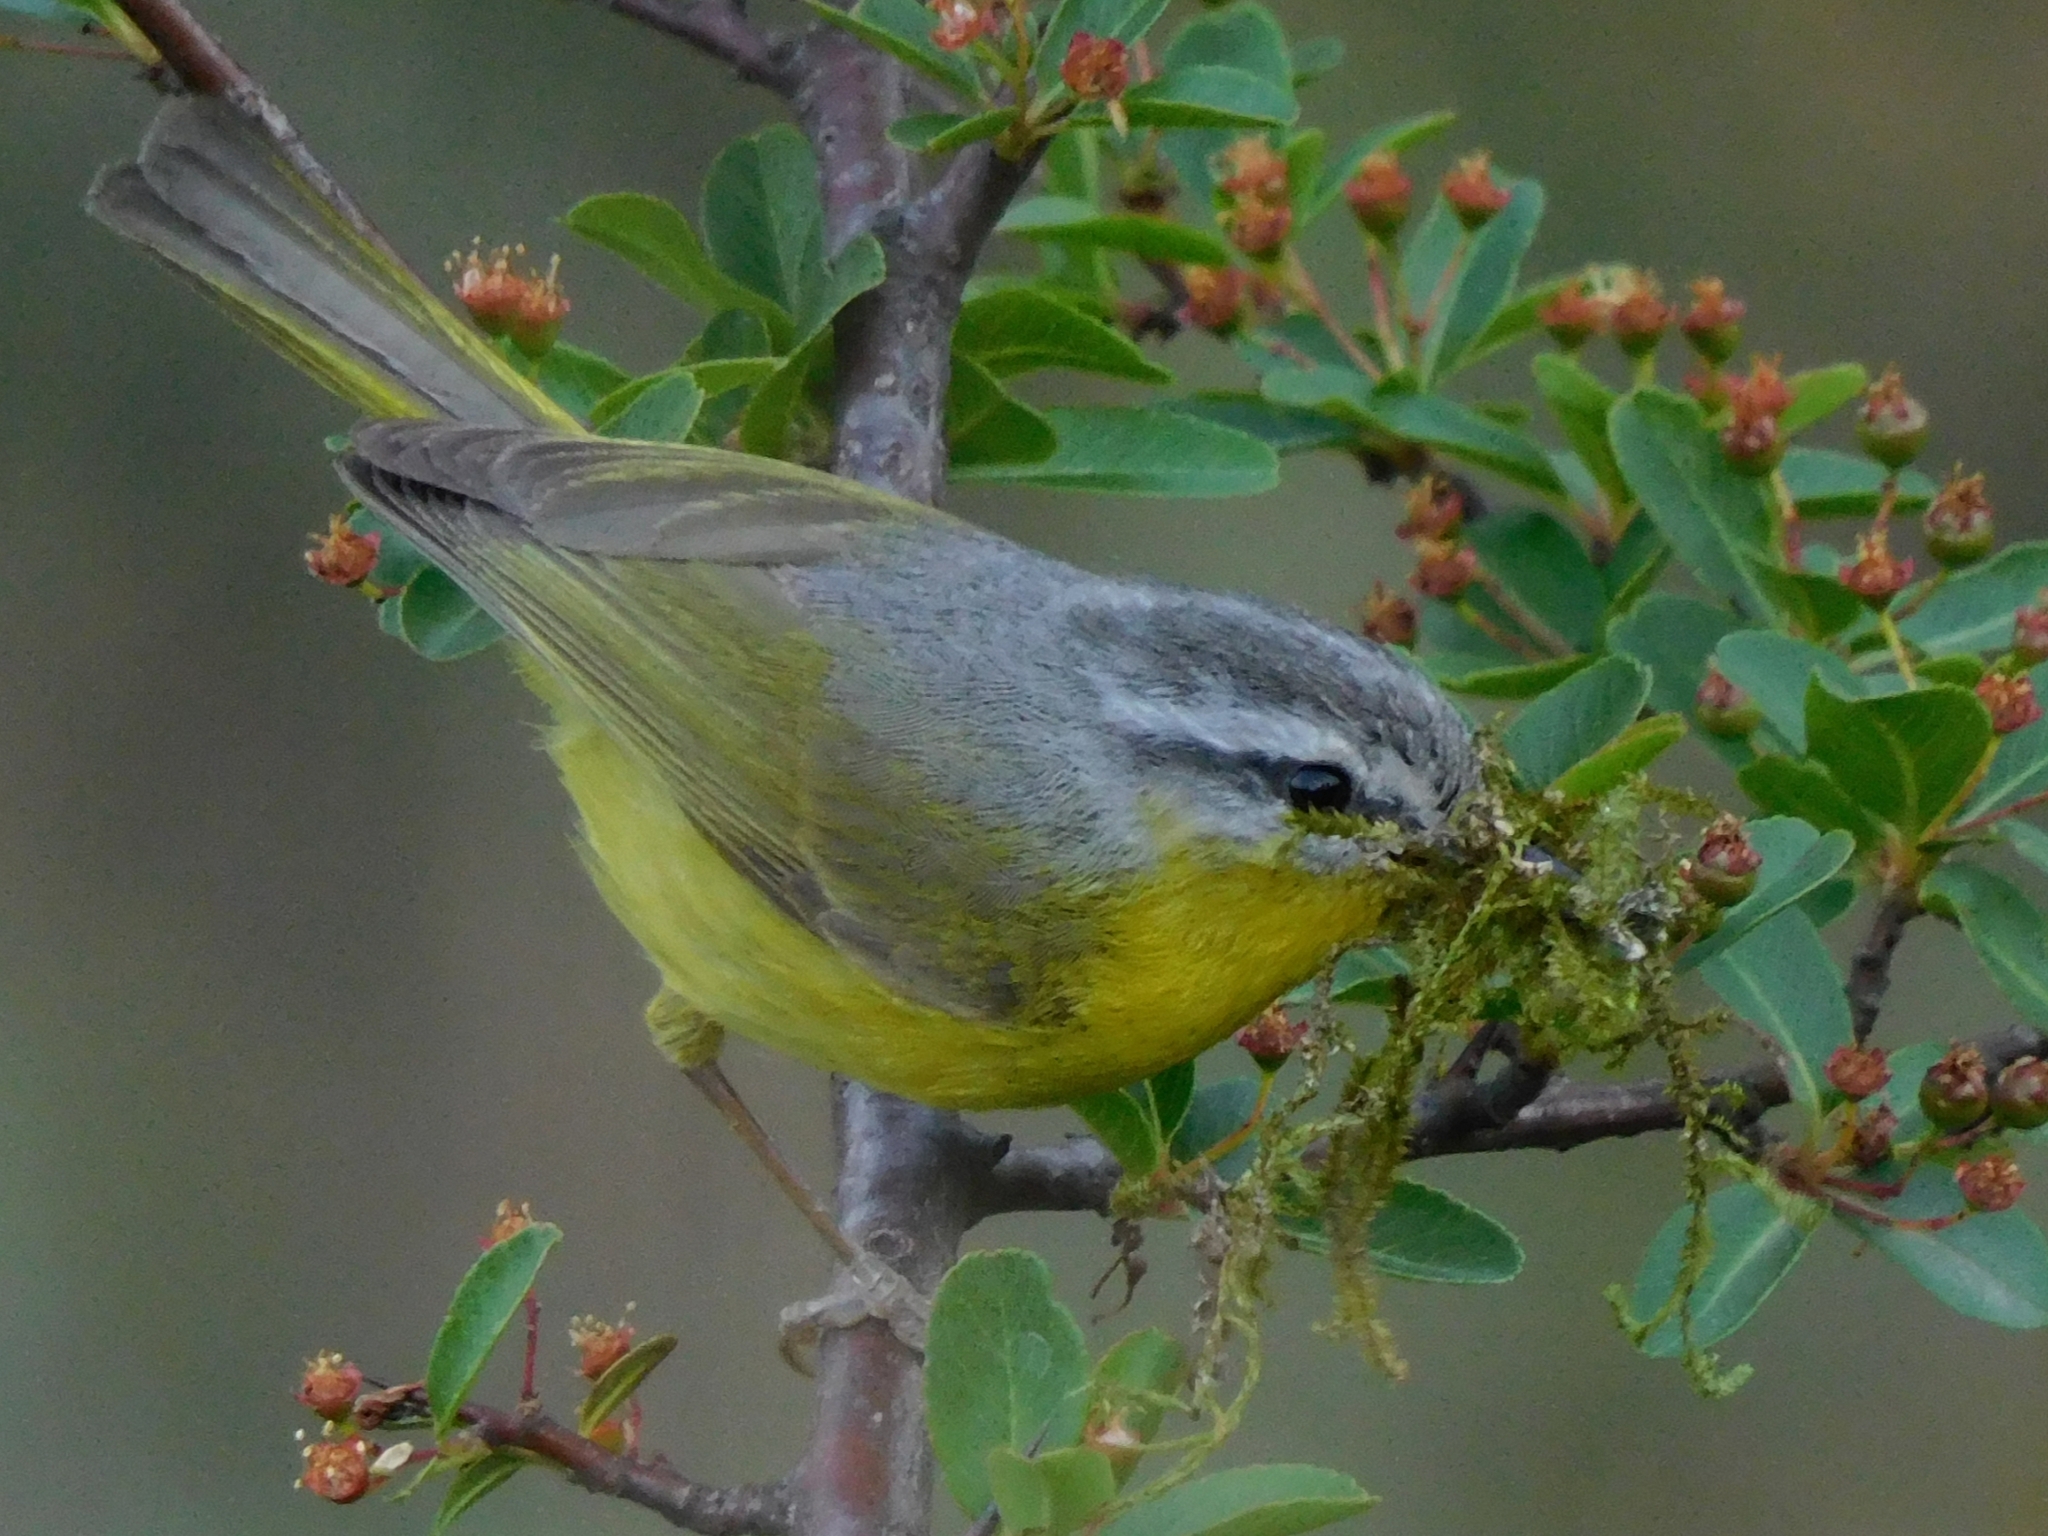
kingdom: Animalia
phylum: Chordata
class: Aves
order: Passeriformes
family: Phylloscopidae
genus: Phylloscopus
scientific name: Phylloscopus xanthoschistos
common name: Grey-hooded warbler
